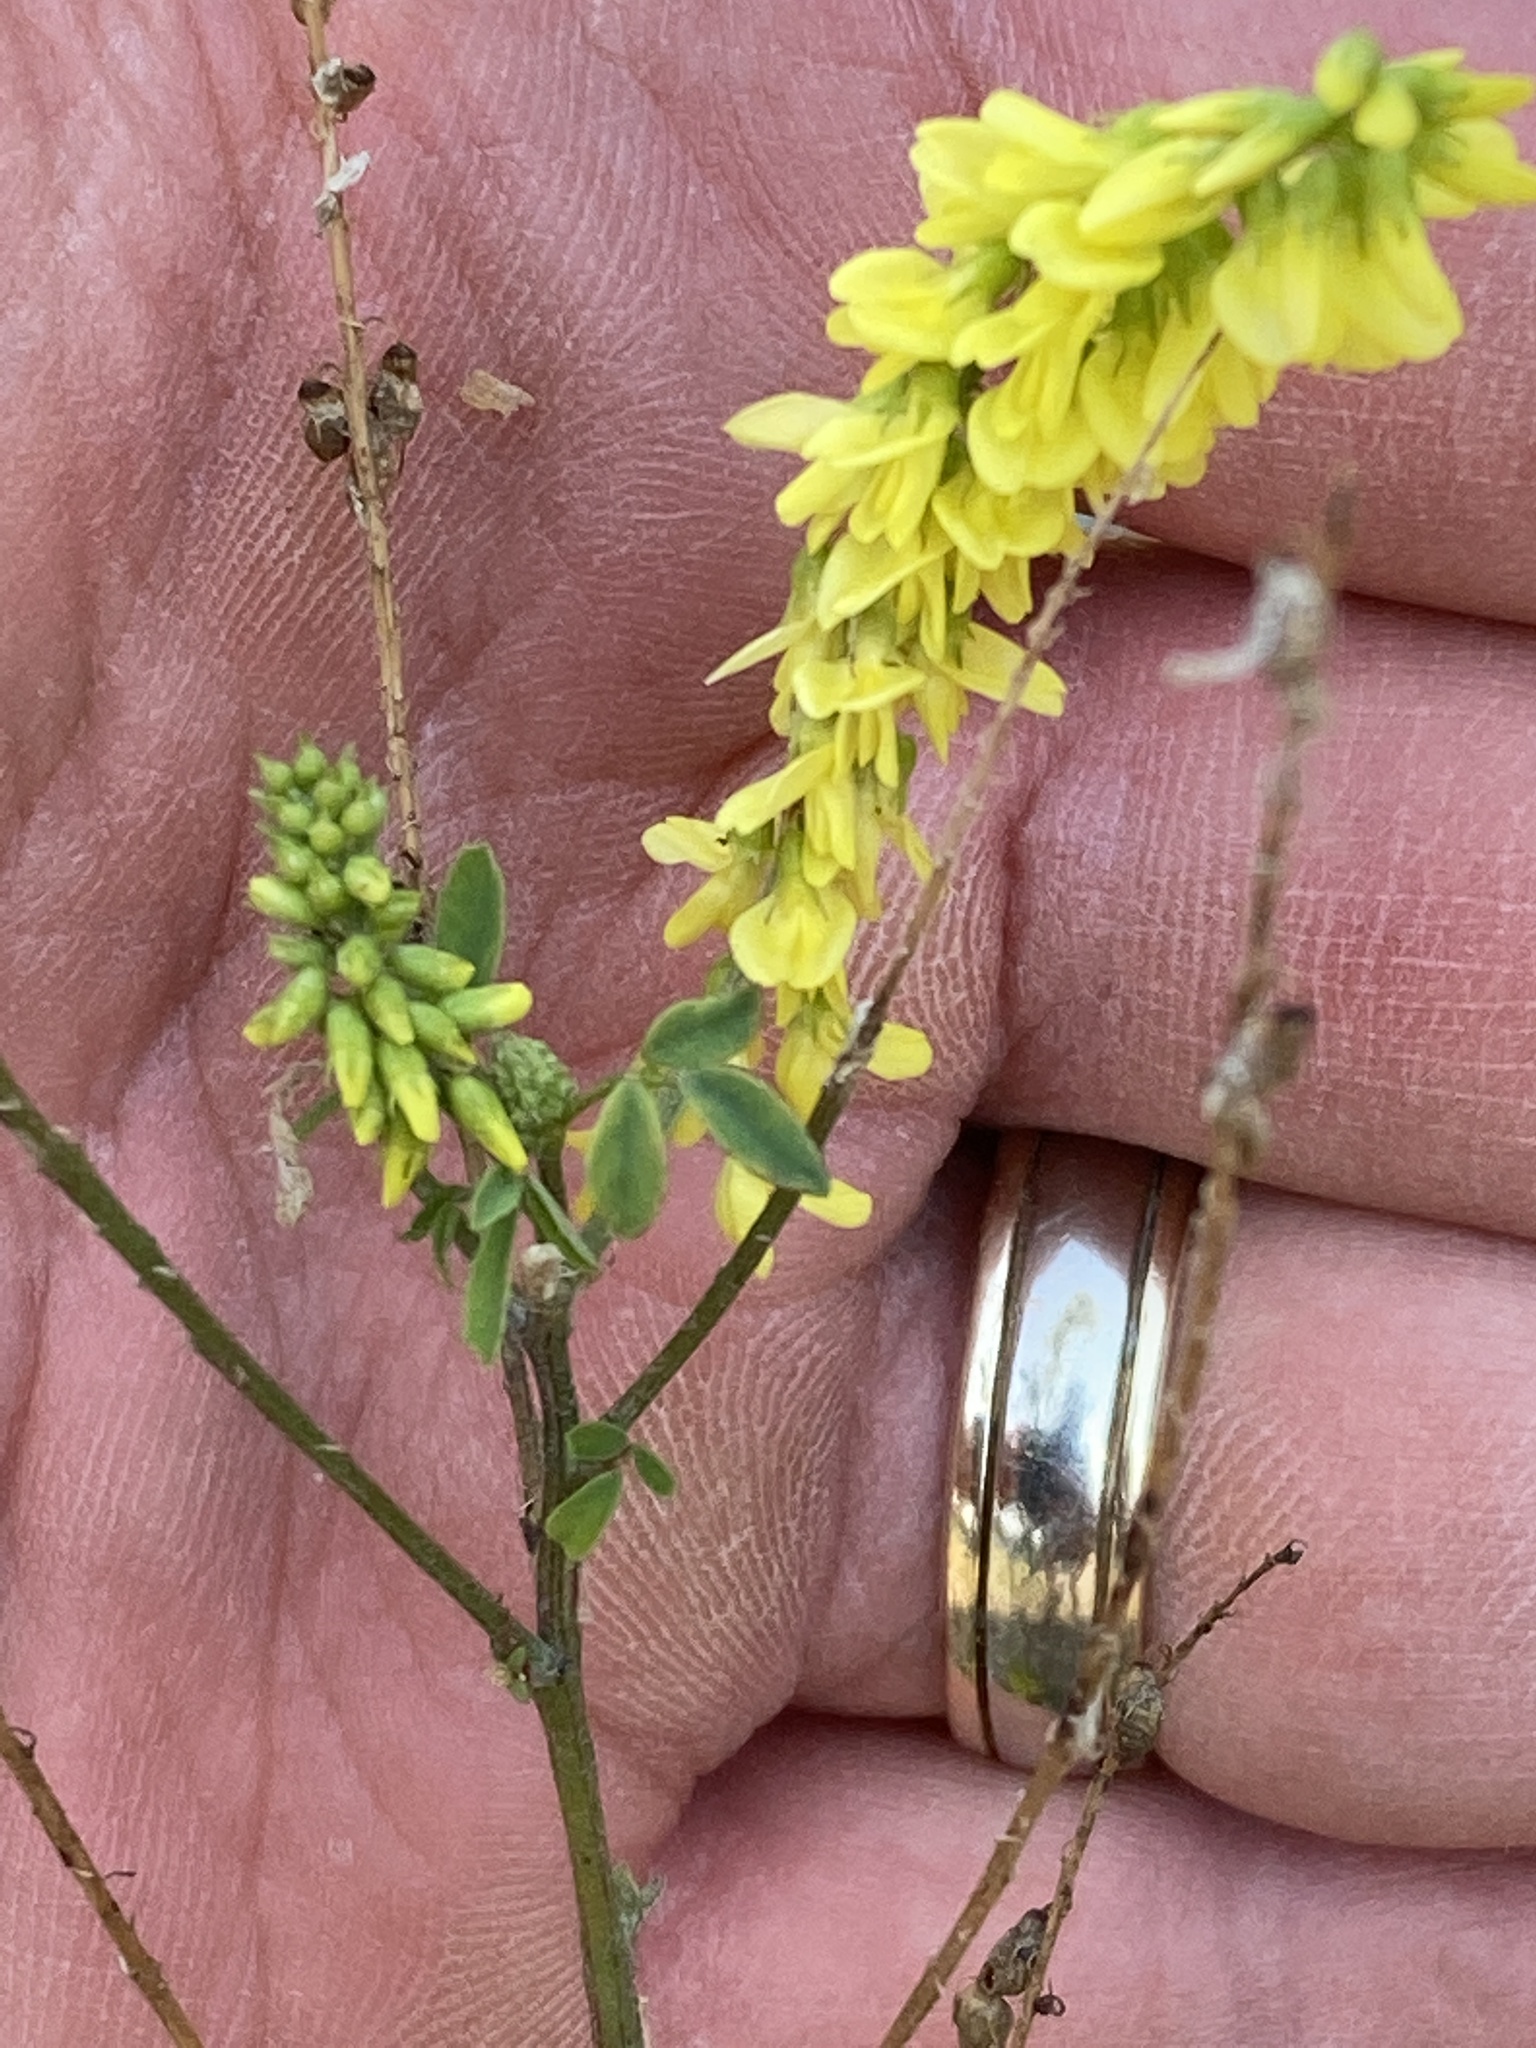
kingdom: Plantae
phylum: Tracheophyta
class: Magnoliopsida
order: Fabales
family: Fabaceae
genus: Melilotus
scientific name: Melilotus officinalis
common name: Sweetclover
